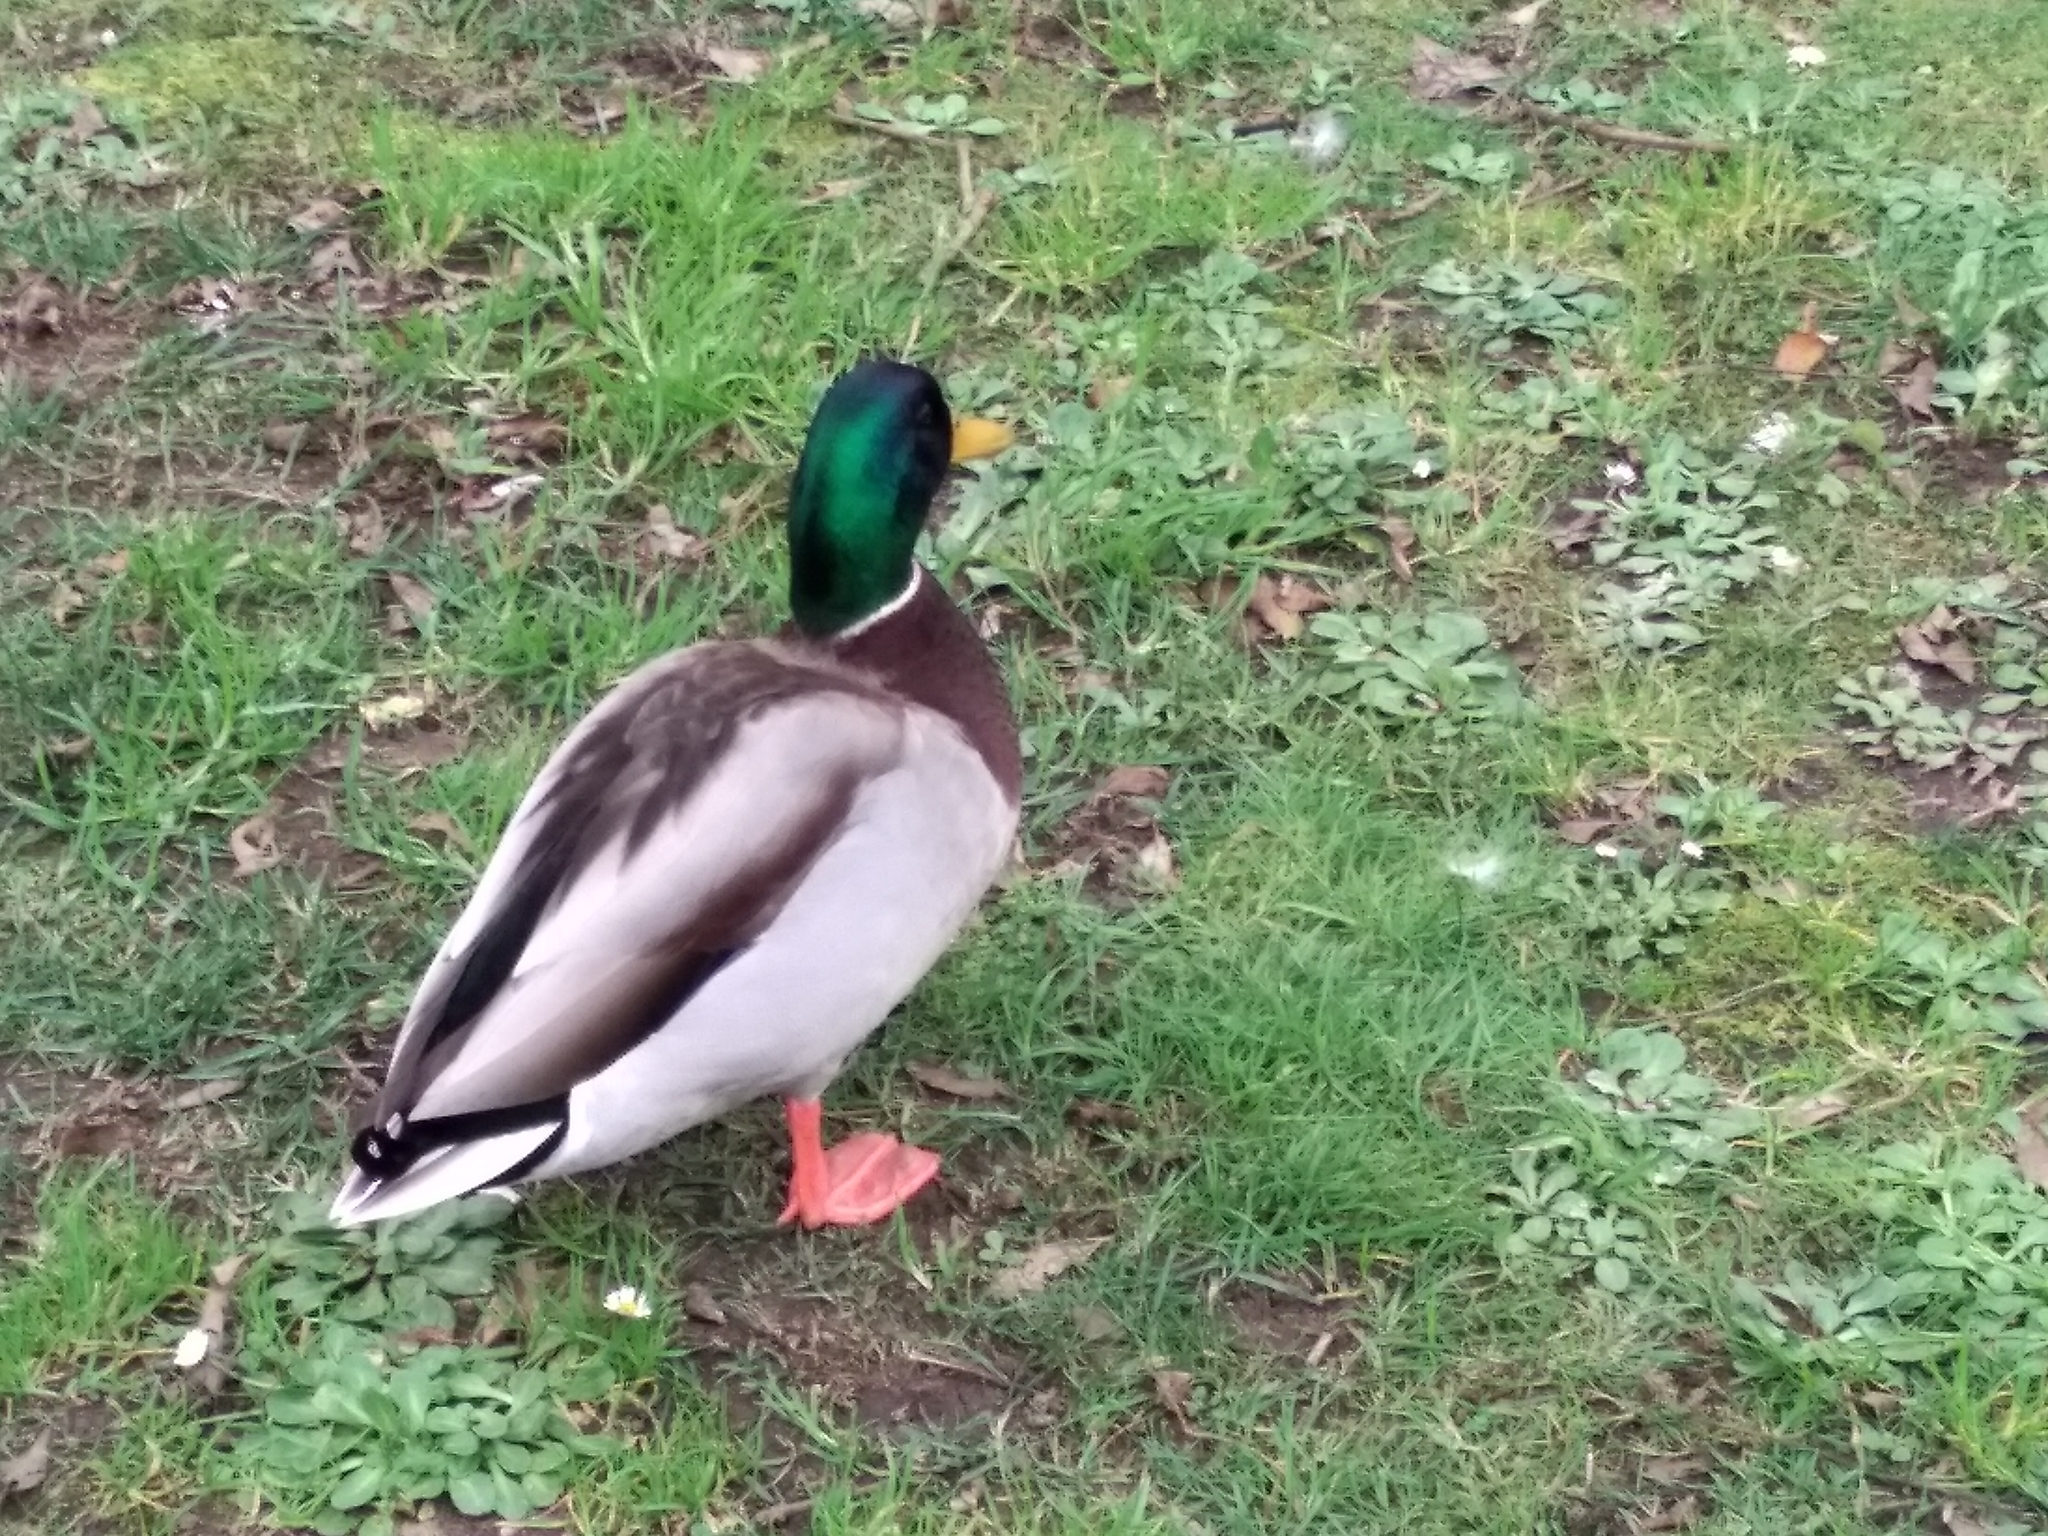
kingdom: Animalia
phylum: Chordata
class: Aves
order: Anseriformes
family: Anatidae
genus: Anas
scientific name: Anas platyrhynchos
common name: Mallard
